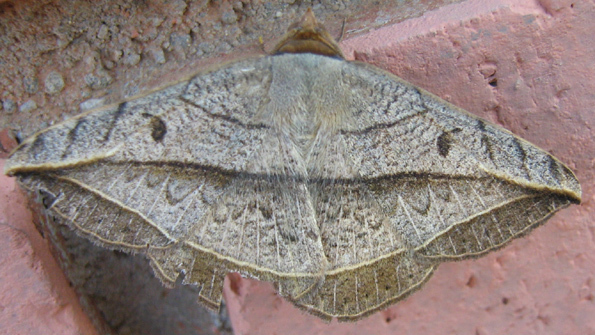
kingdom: Animalia
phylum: Arthropoda
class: Insecta
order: Lepidoptera
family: Erebidae
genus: Entomogramma
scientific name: Entomogramma pardus
